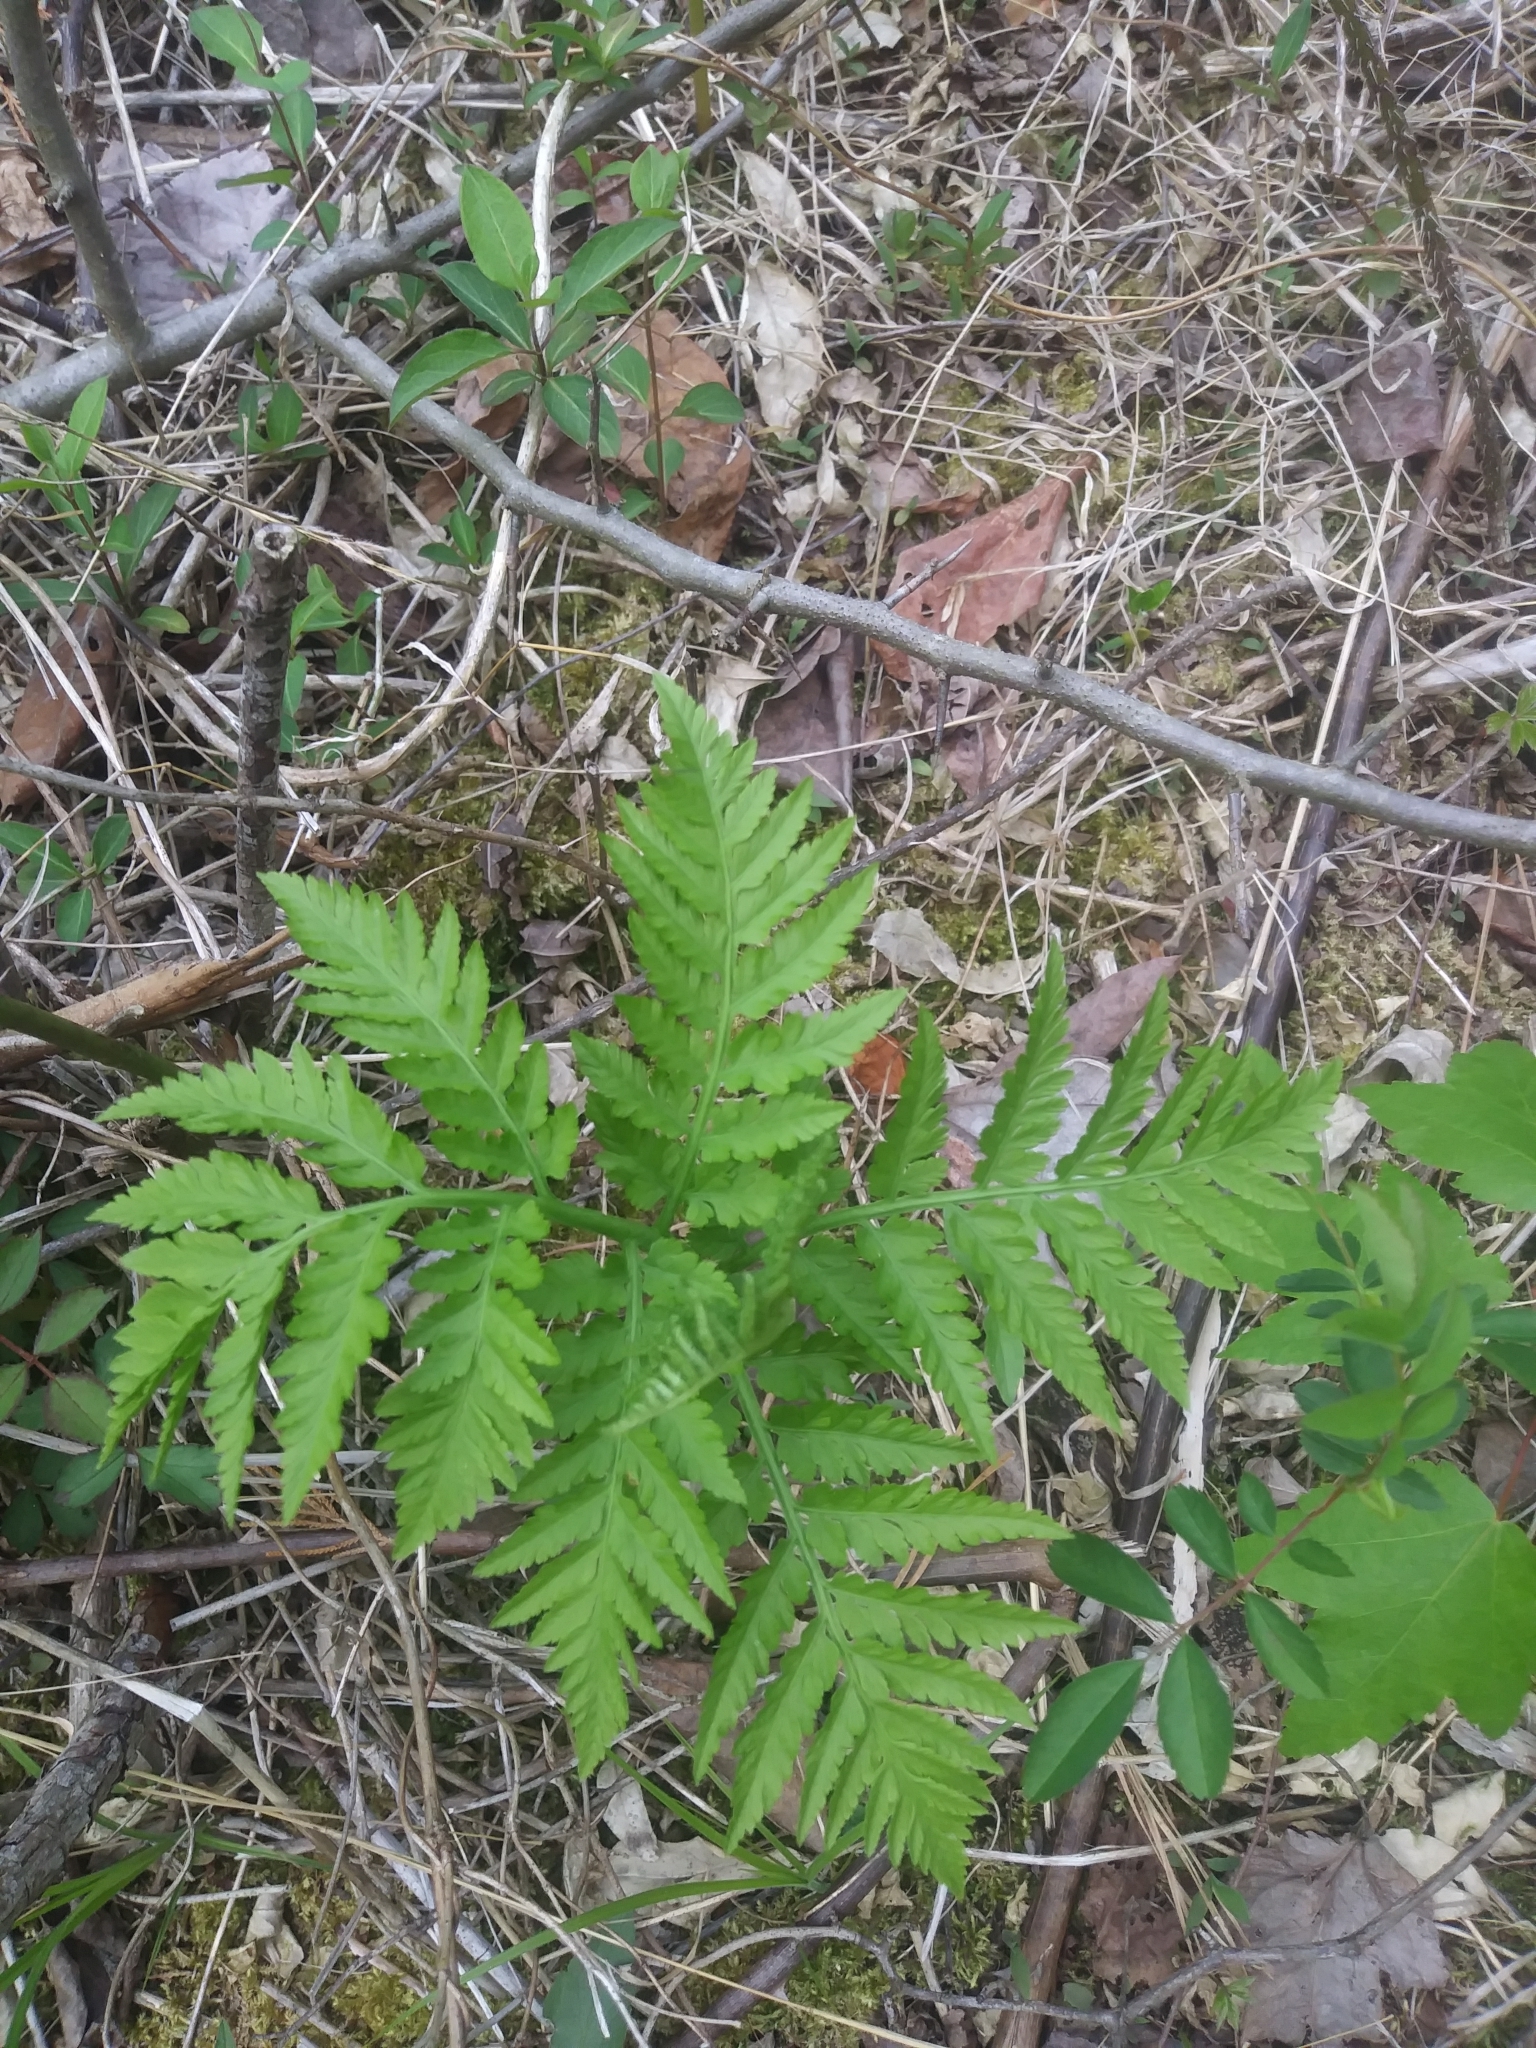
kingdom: Plantae
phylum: Tracheophyta
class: Polypodiopsida
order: Ophioglossales
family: Ophioglossaceae
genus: Botrypus
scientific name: Botrypus virginianus
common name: Common grapefern
